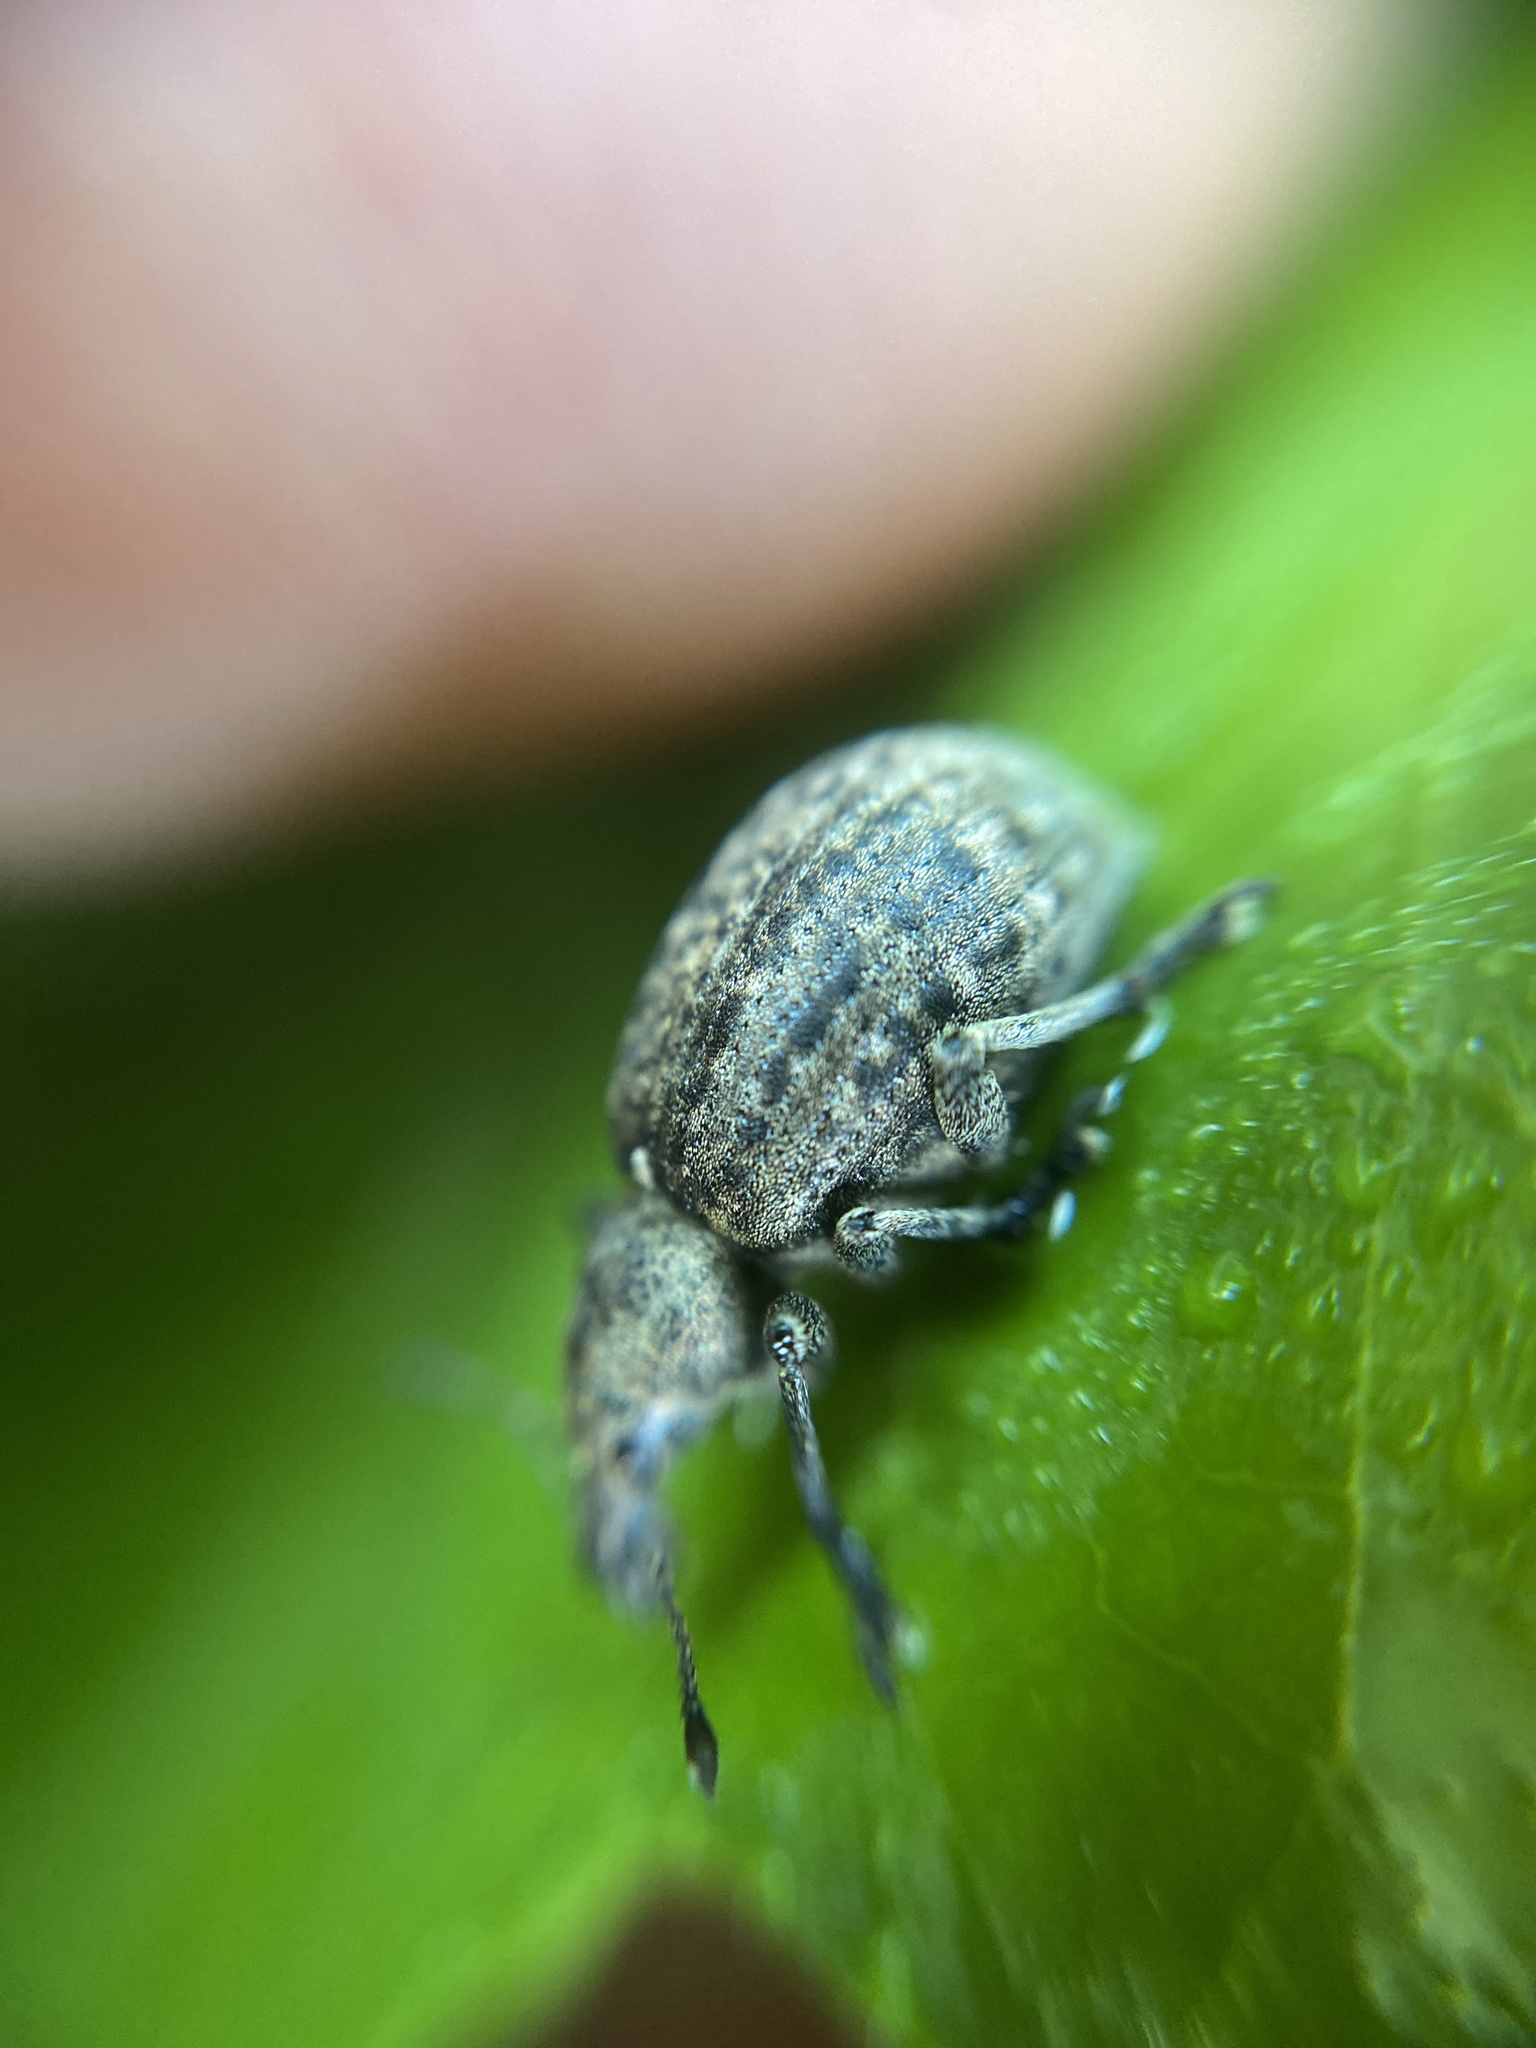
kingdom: Animalia
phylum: Arthropoda
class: Insecta
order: Coleoptera
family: Curculionidae
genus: Liophloeus
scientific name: Liophloeus tessulatus
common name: Weevil
